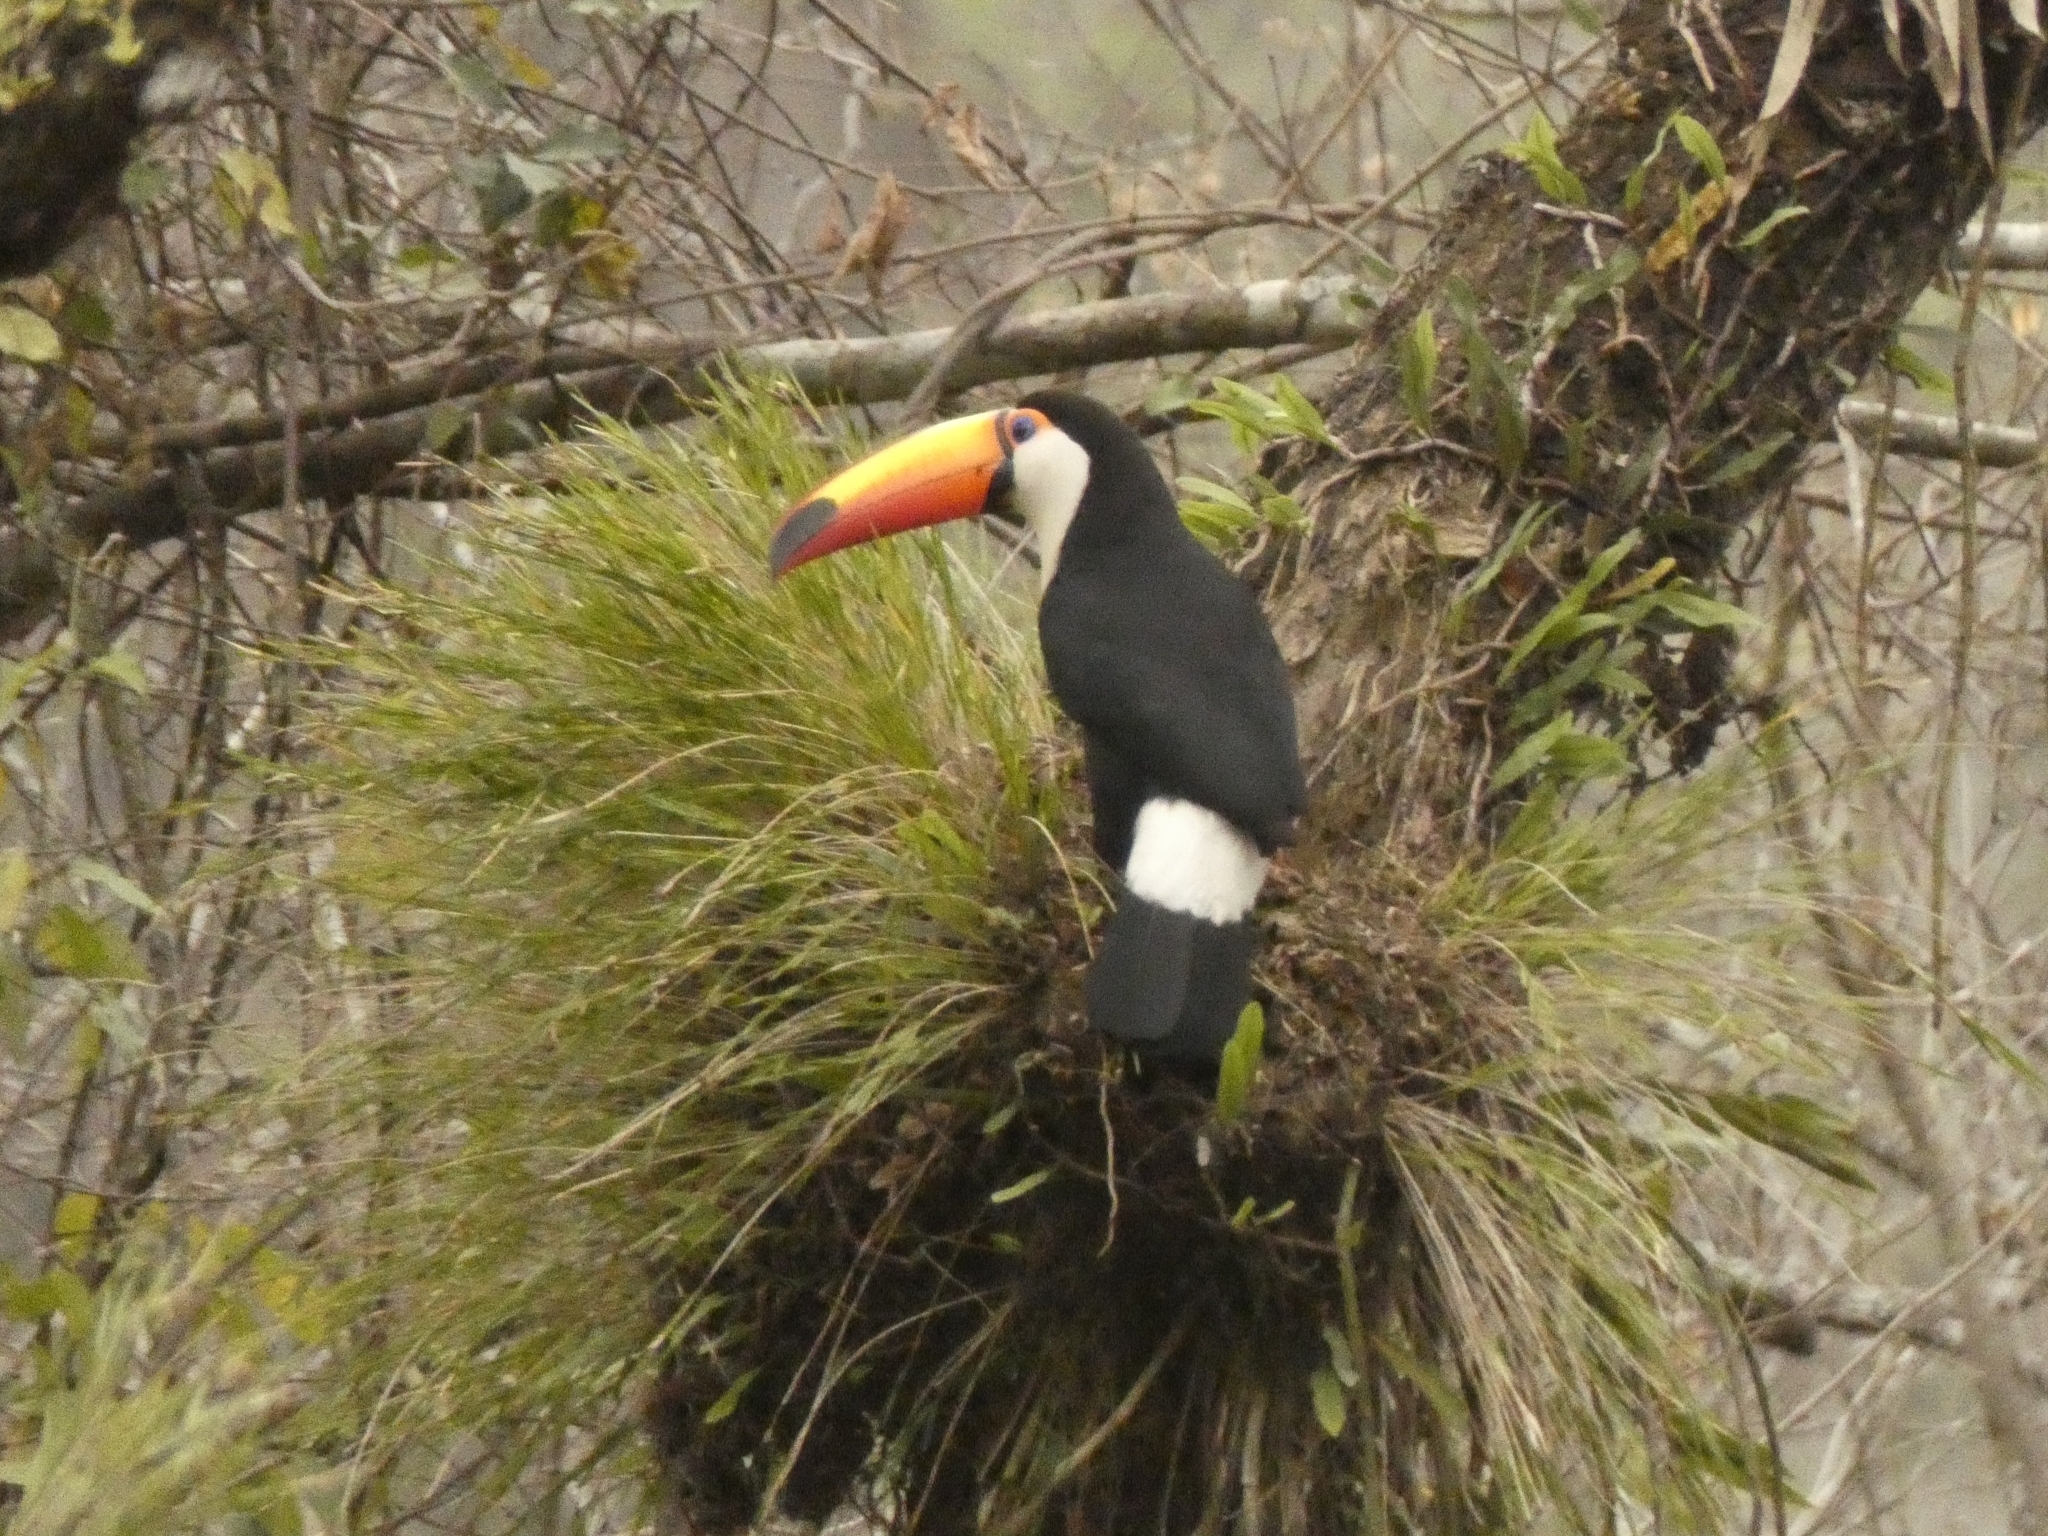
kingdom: Animalia
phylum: Chordata
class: Aves
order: Piciformes
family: Ramphastidae
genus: Ramphastos
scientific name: Ramphastos toco
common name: Toco toucan
